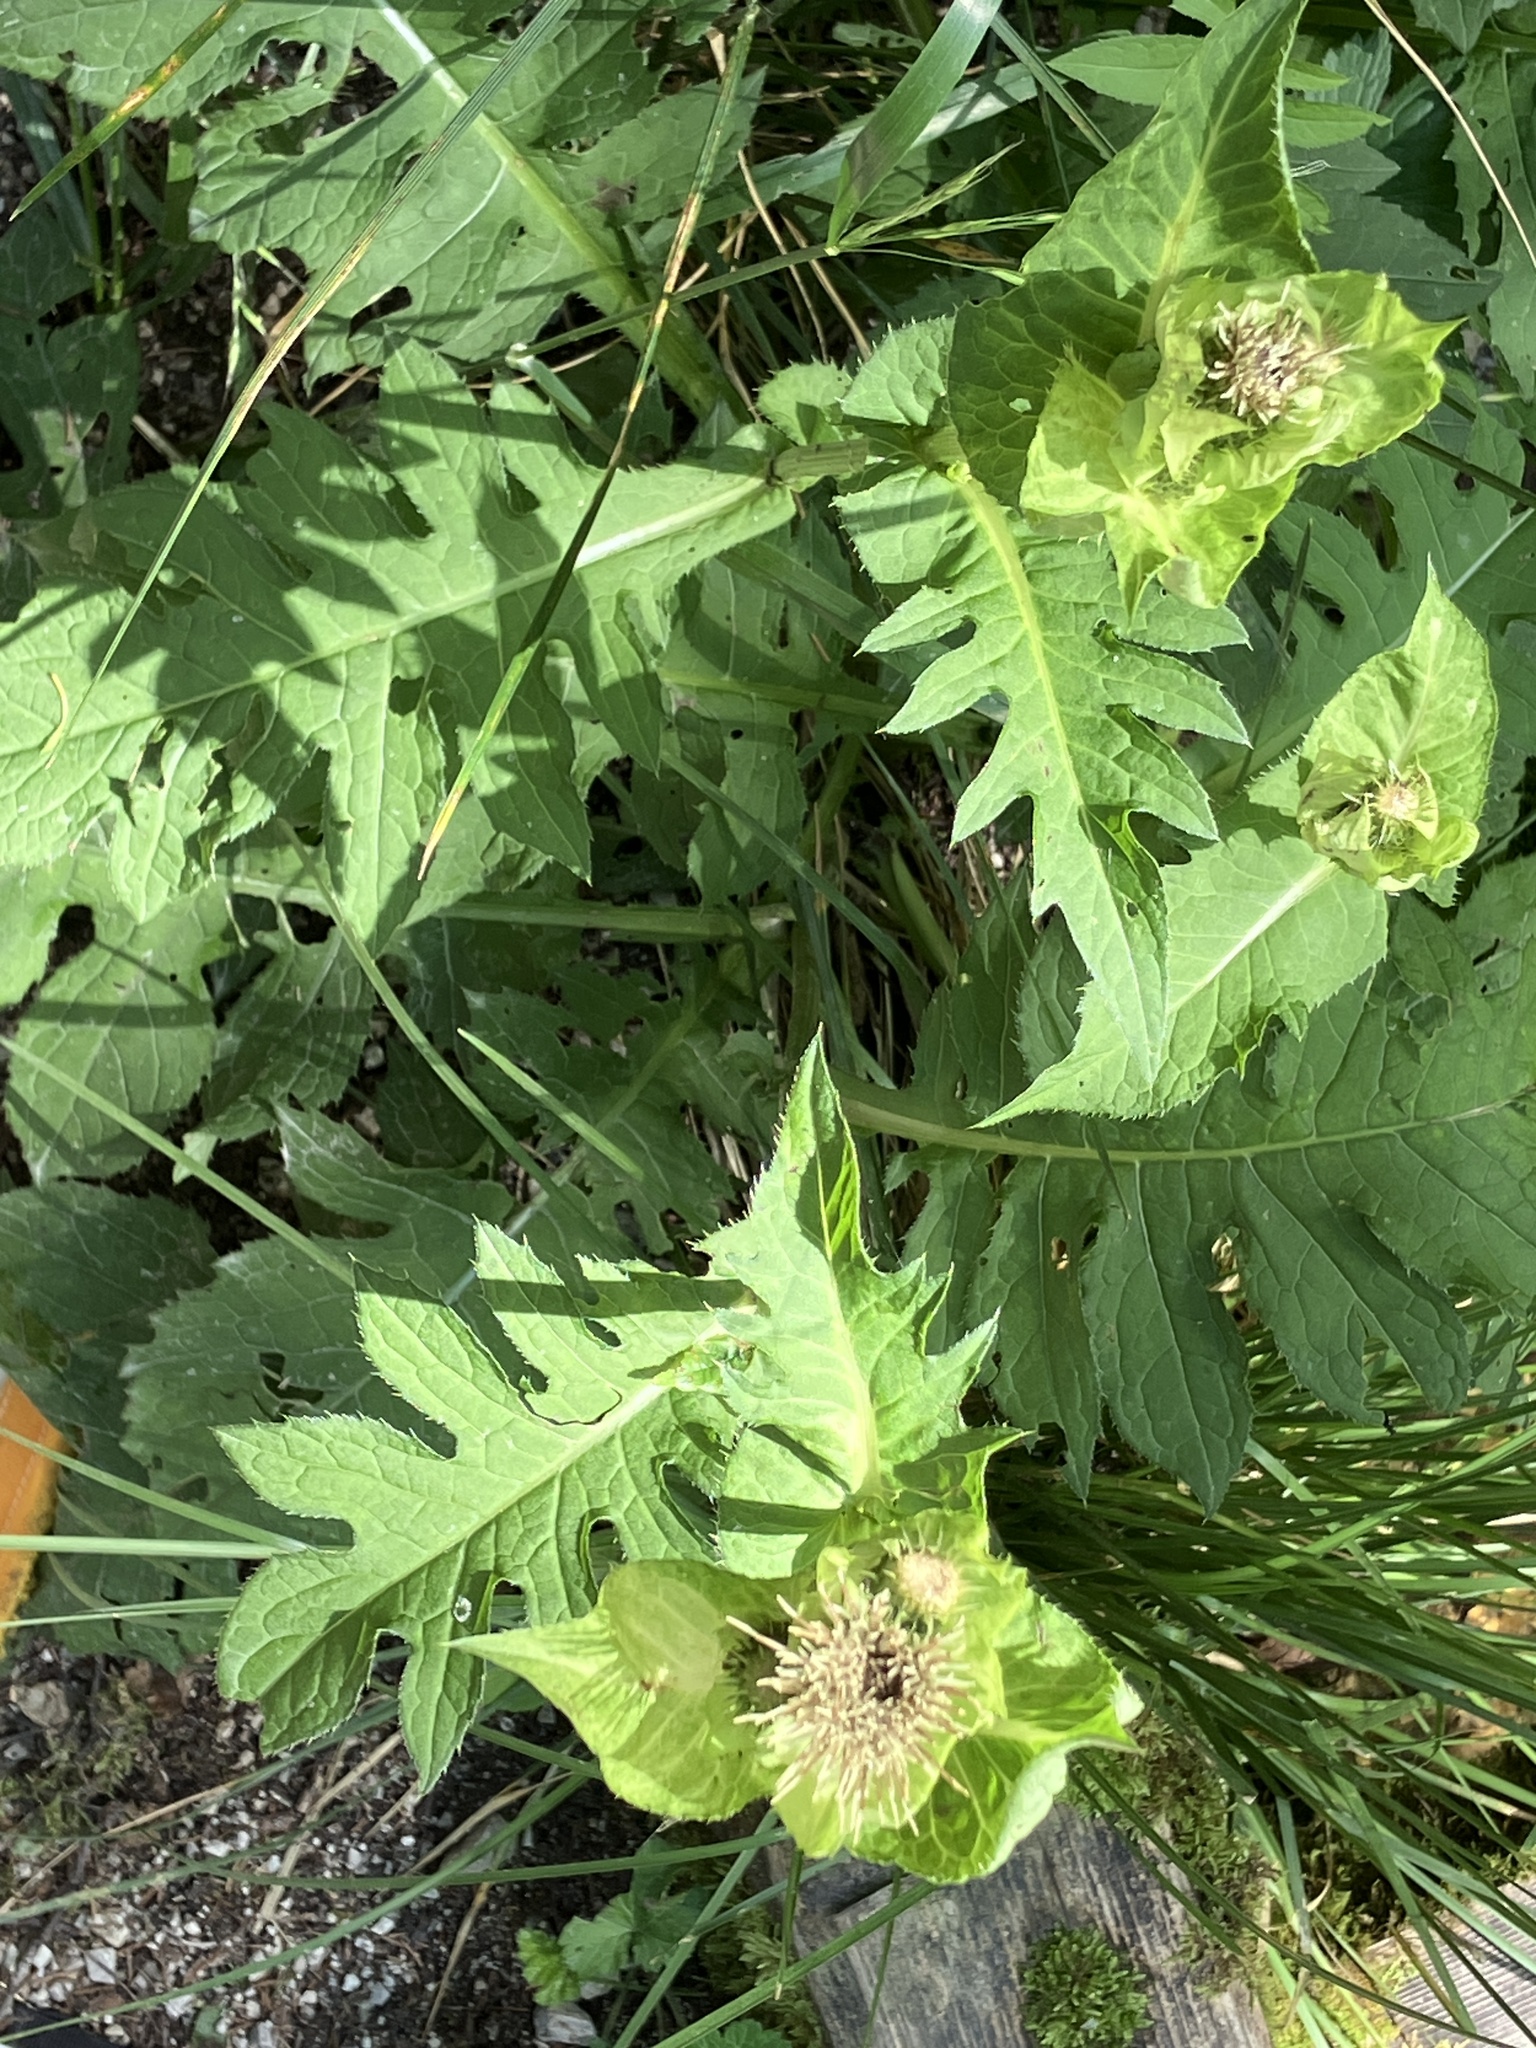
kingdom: Plantae
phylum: Tracheophyta
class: Magnoliopsida
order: Asterales
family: Asteraceae
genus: Cirsium
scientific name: Cirsium oleraceum
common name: Cabbage thistle
